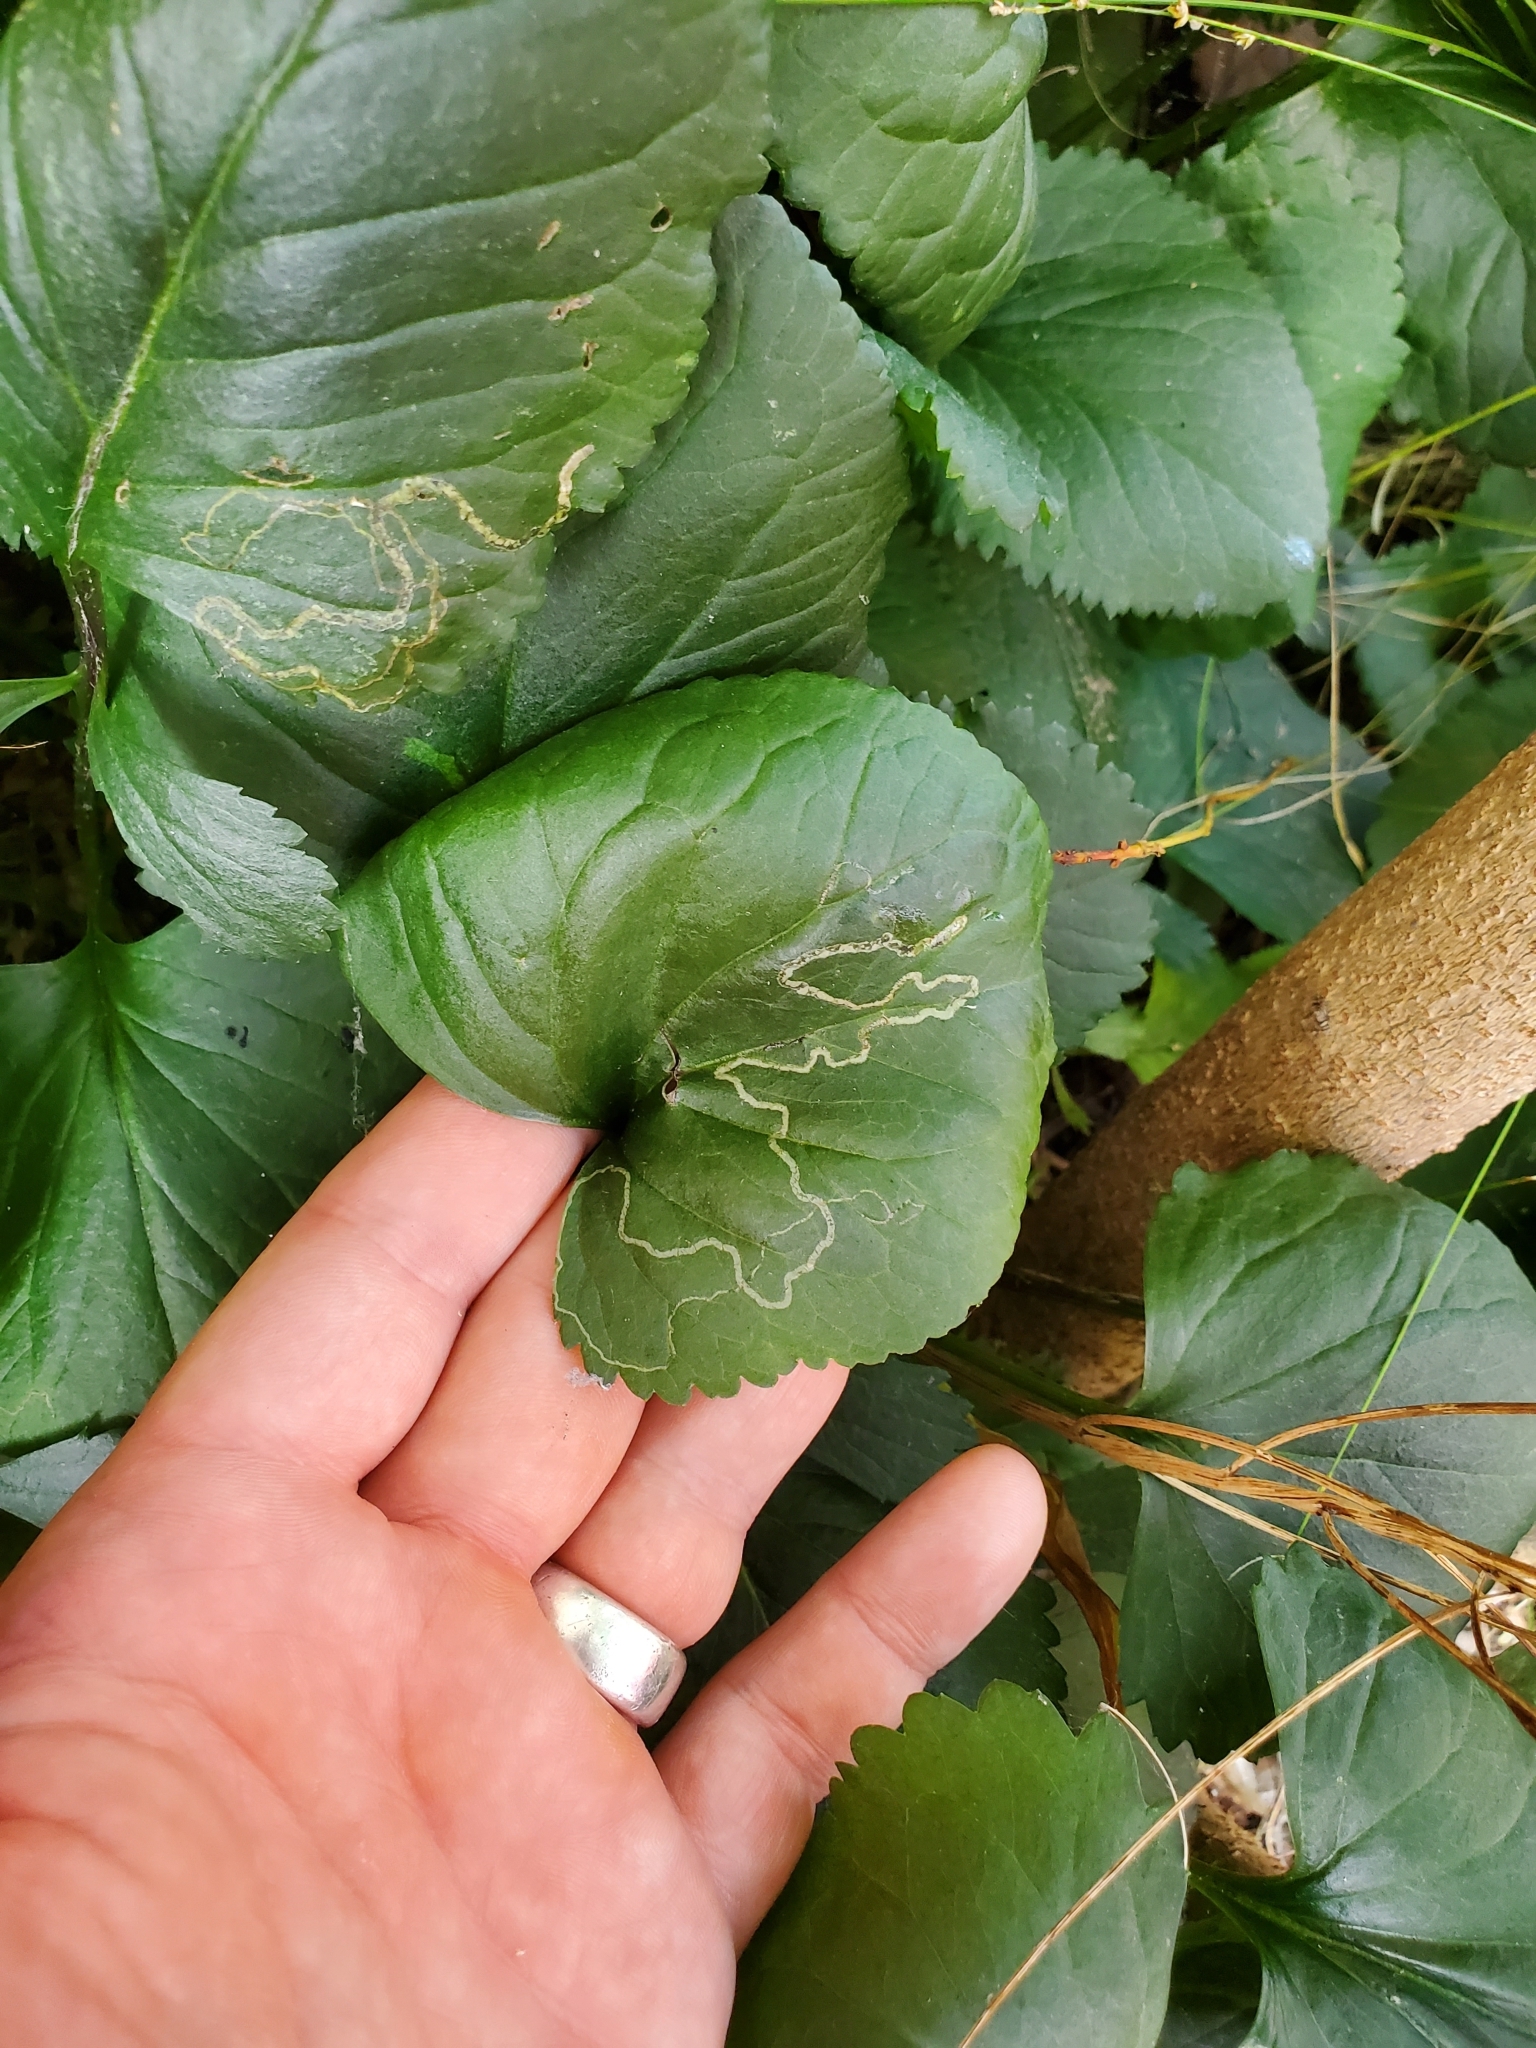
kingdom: Animalia
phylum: Arthropoda
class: Insecta
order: Lepidoptera
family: Gracillariidae
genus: Phyllocnistis
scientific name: Phyllocnistis insignis
